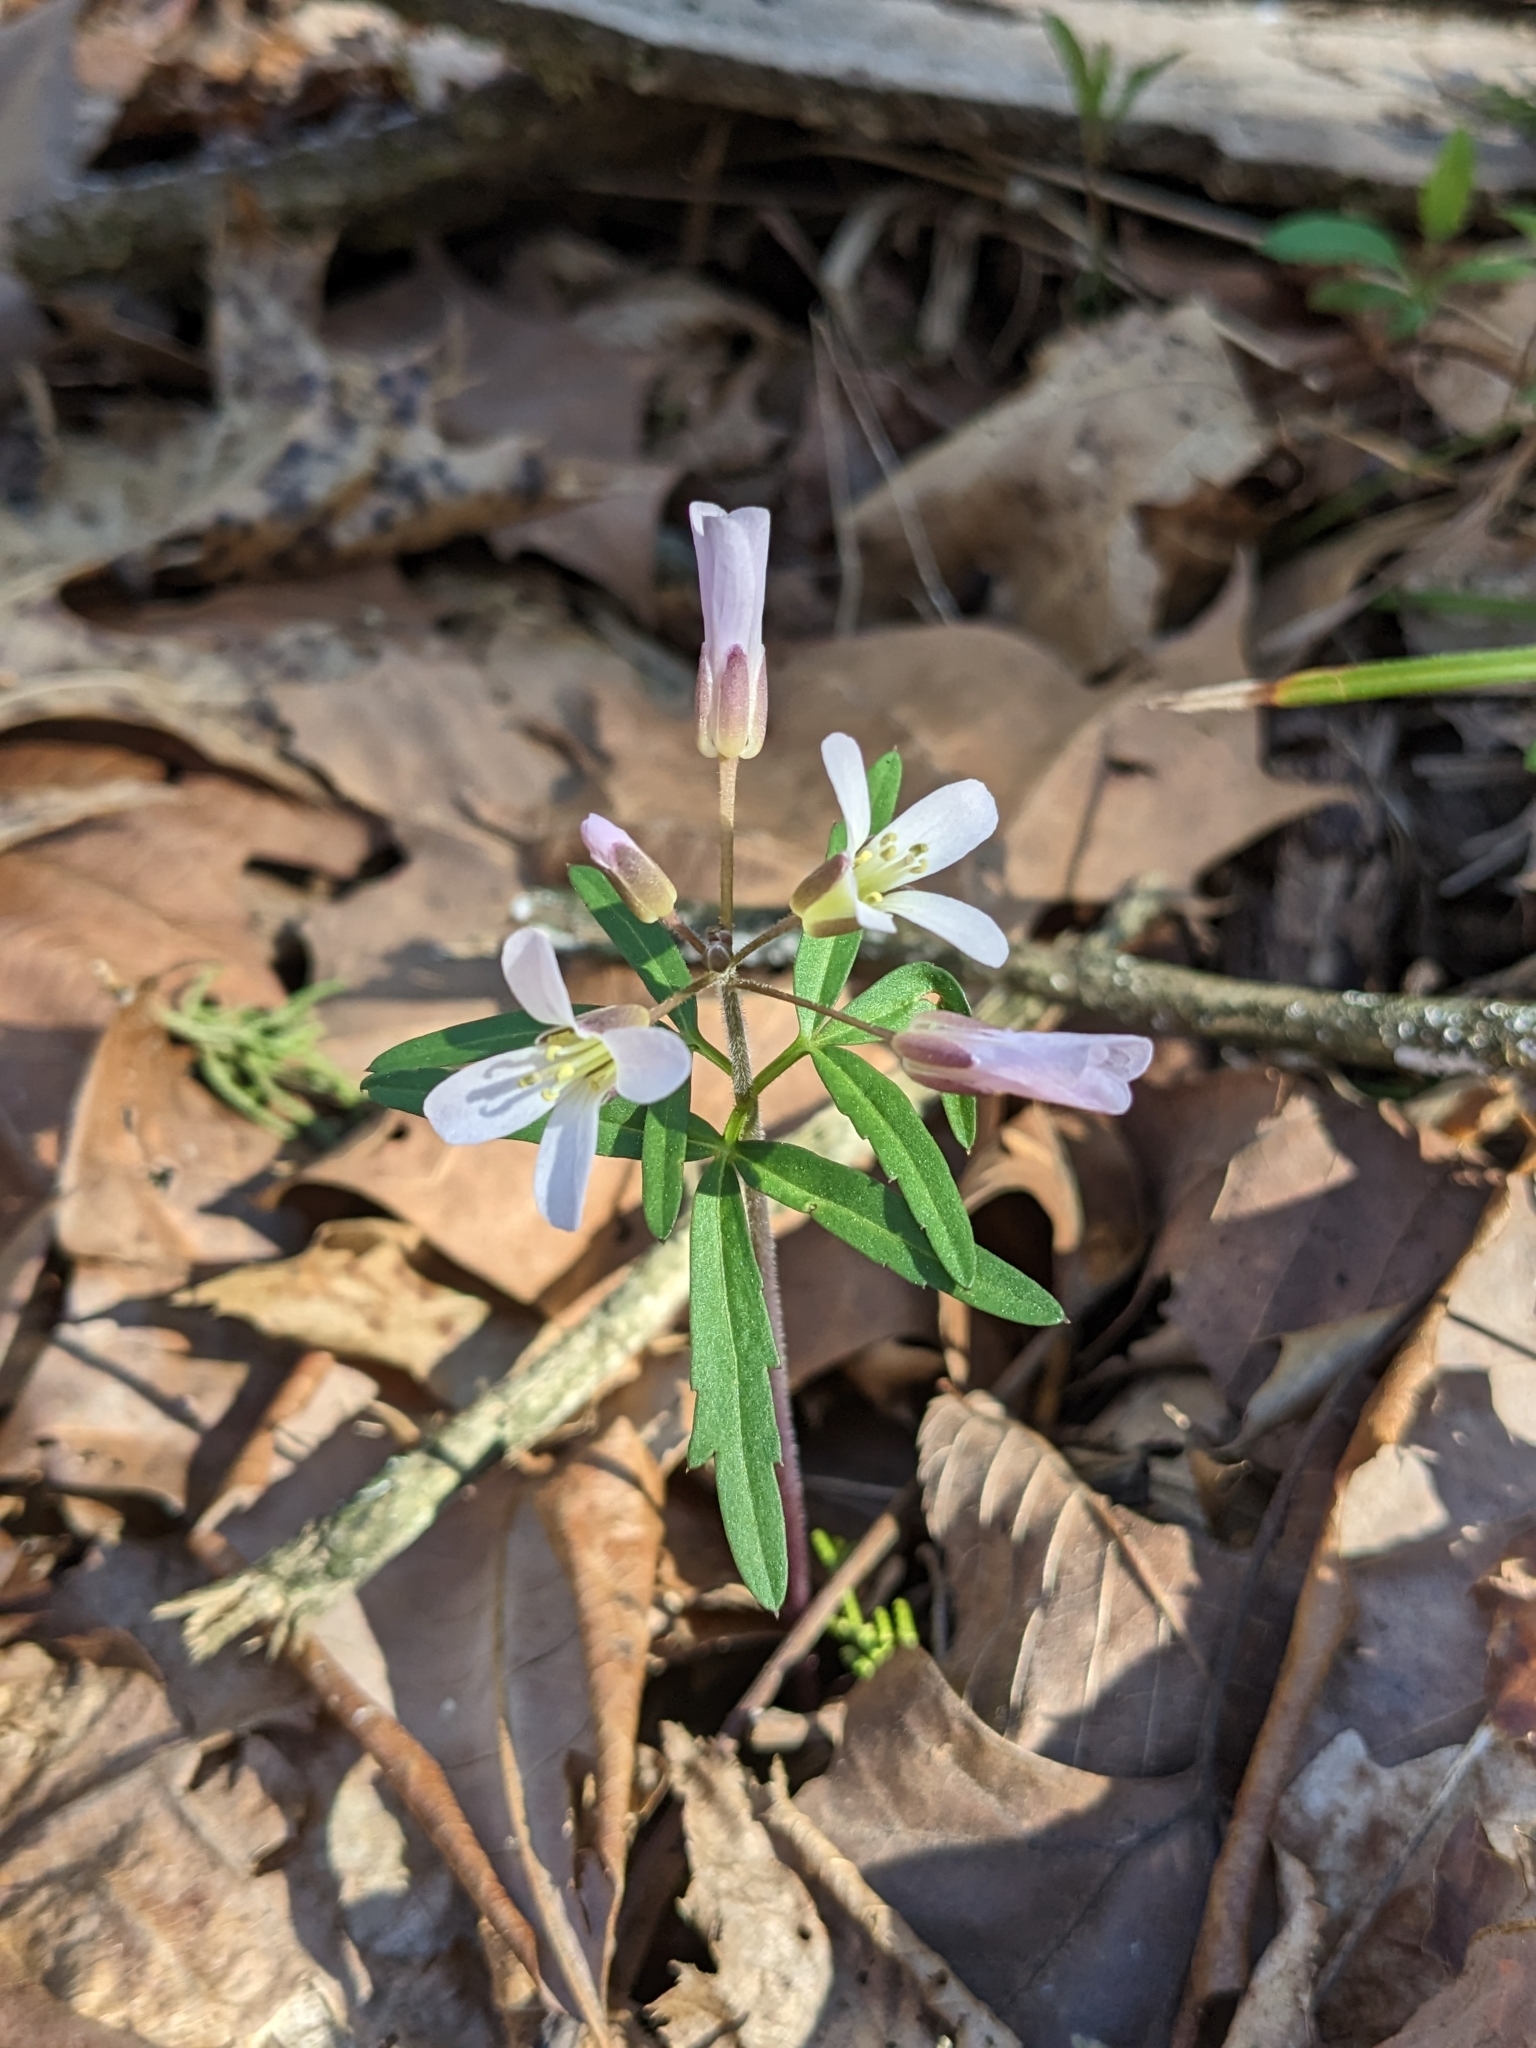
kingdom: Plantae
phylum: Tracheophyta
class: Magnoliopsida
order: Brassicales
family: Brassicaceae
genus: Cardamine
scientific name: Cardamine concatenata
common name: Cut-leaf toothcup
